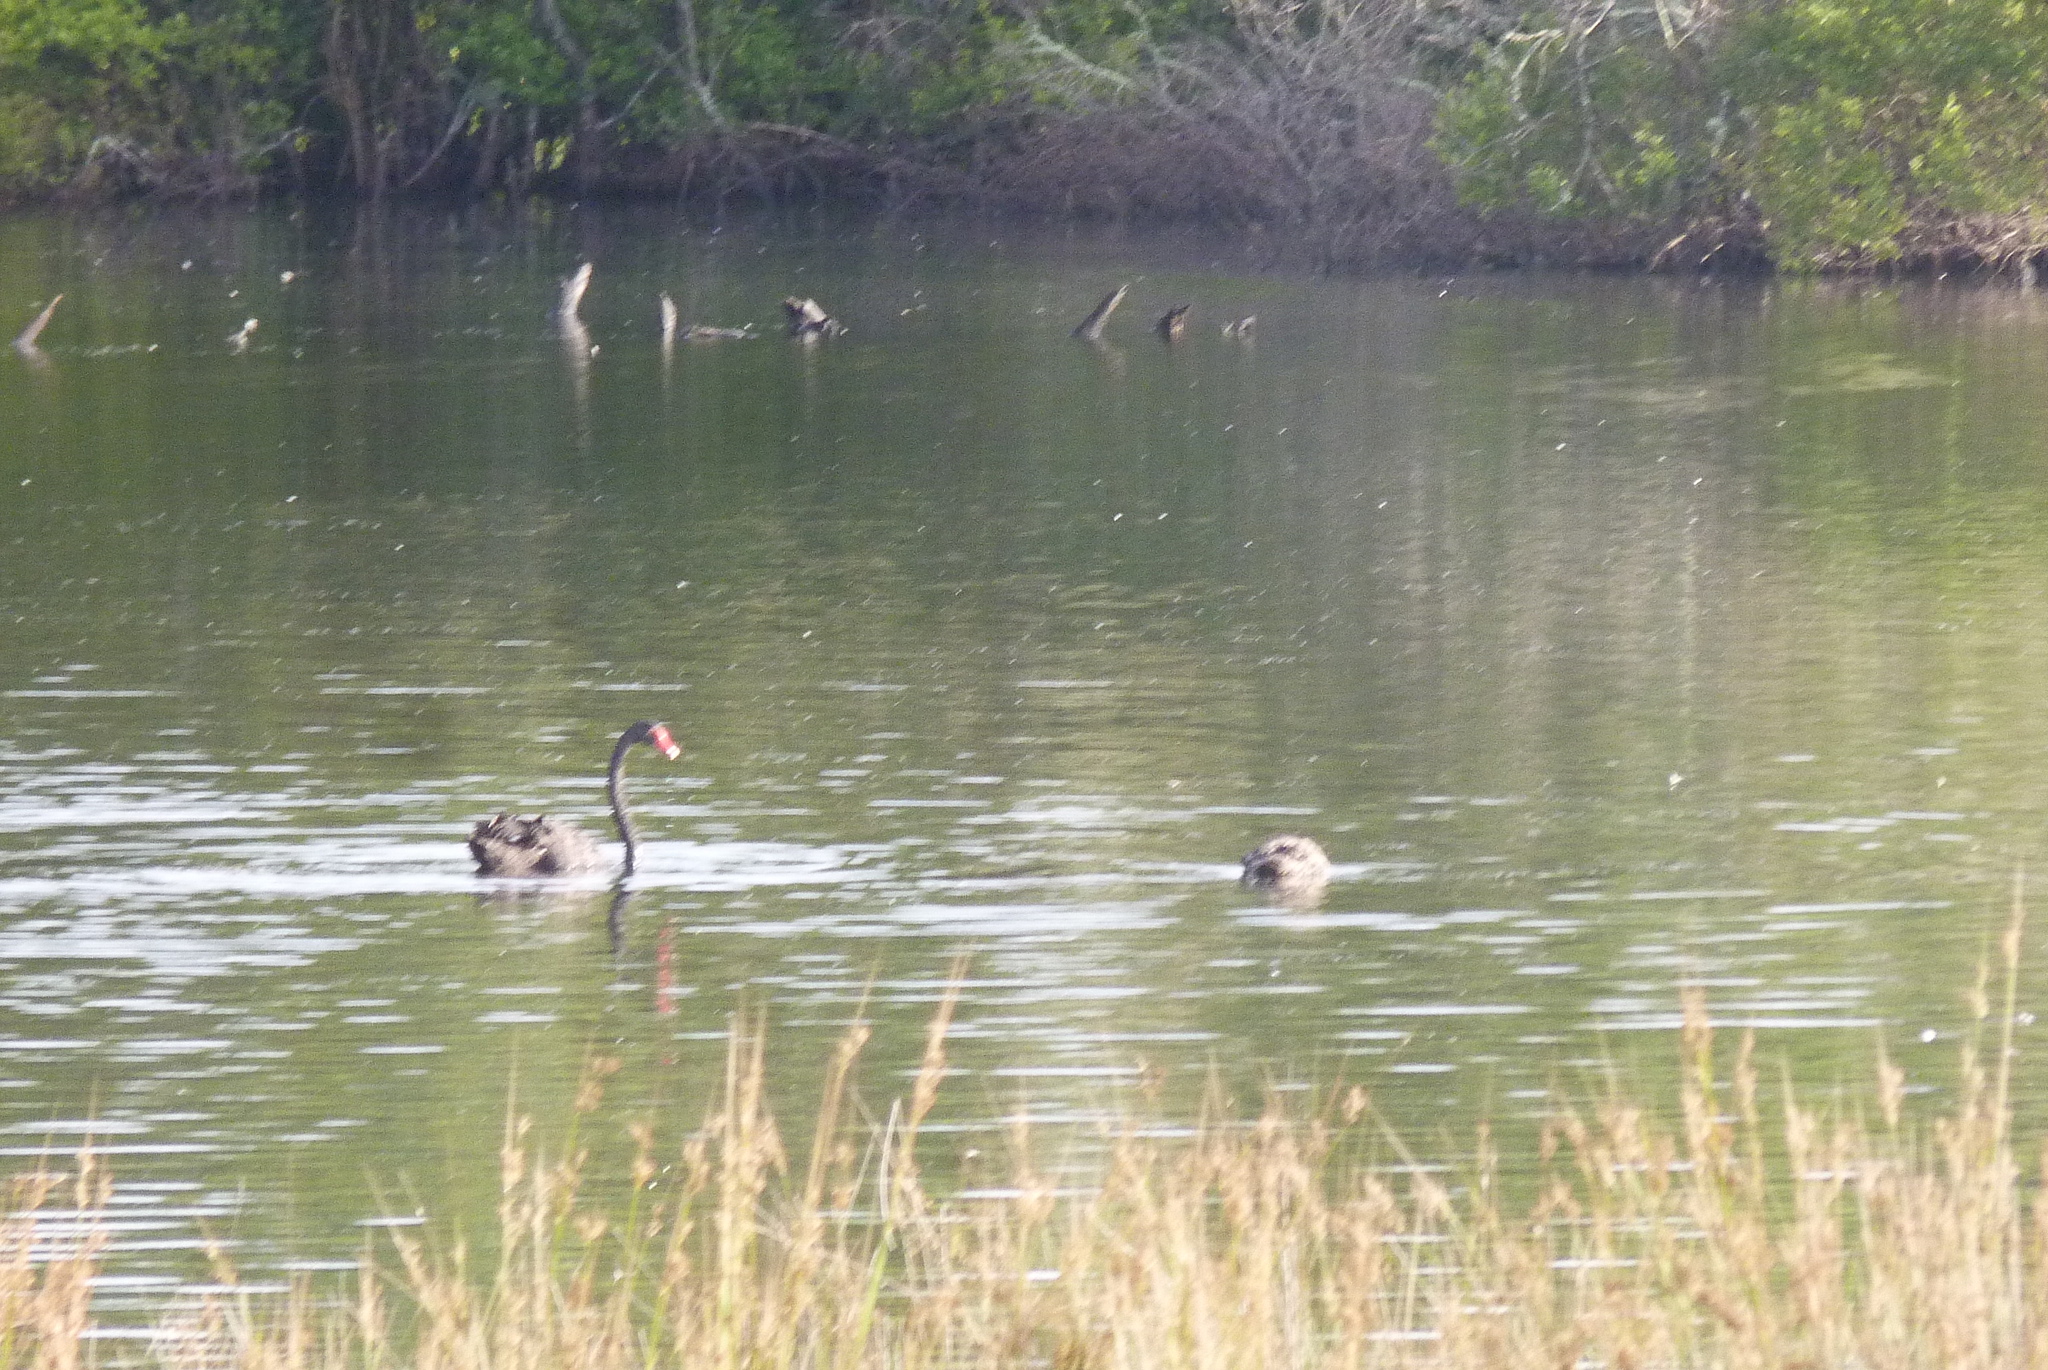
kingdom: Animalia
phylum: Chordata
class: Aves
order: Anseriformes
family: Anatidae
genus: Cygnus
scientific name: Cygnus atratus
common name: Black swan
